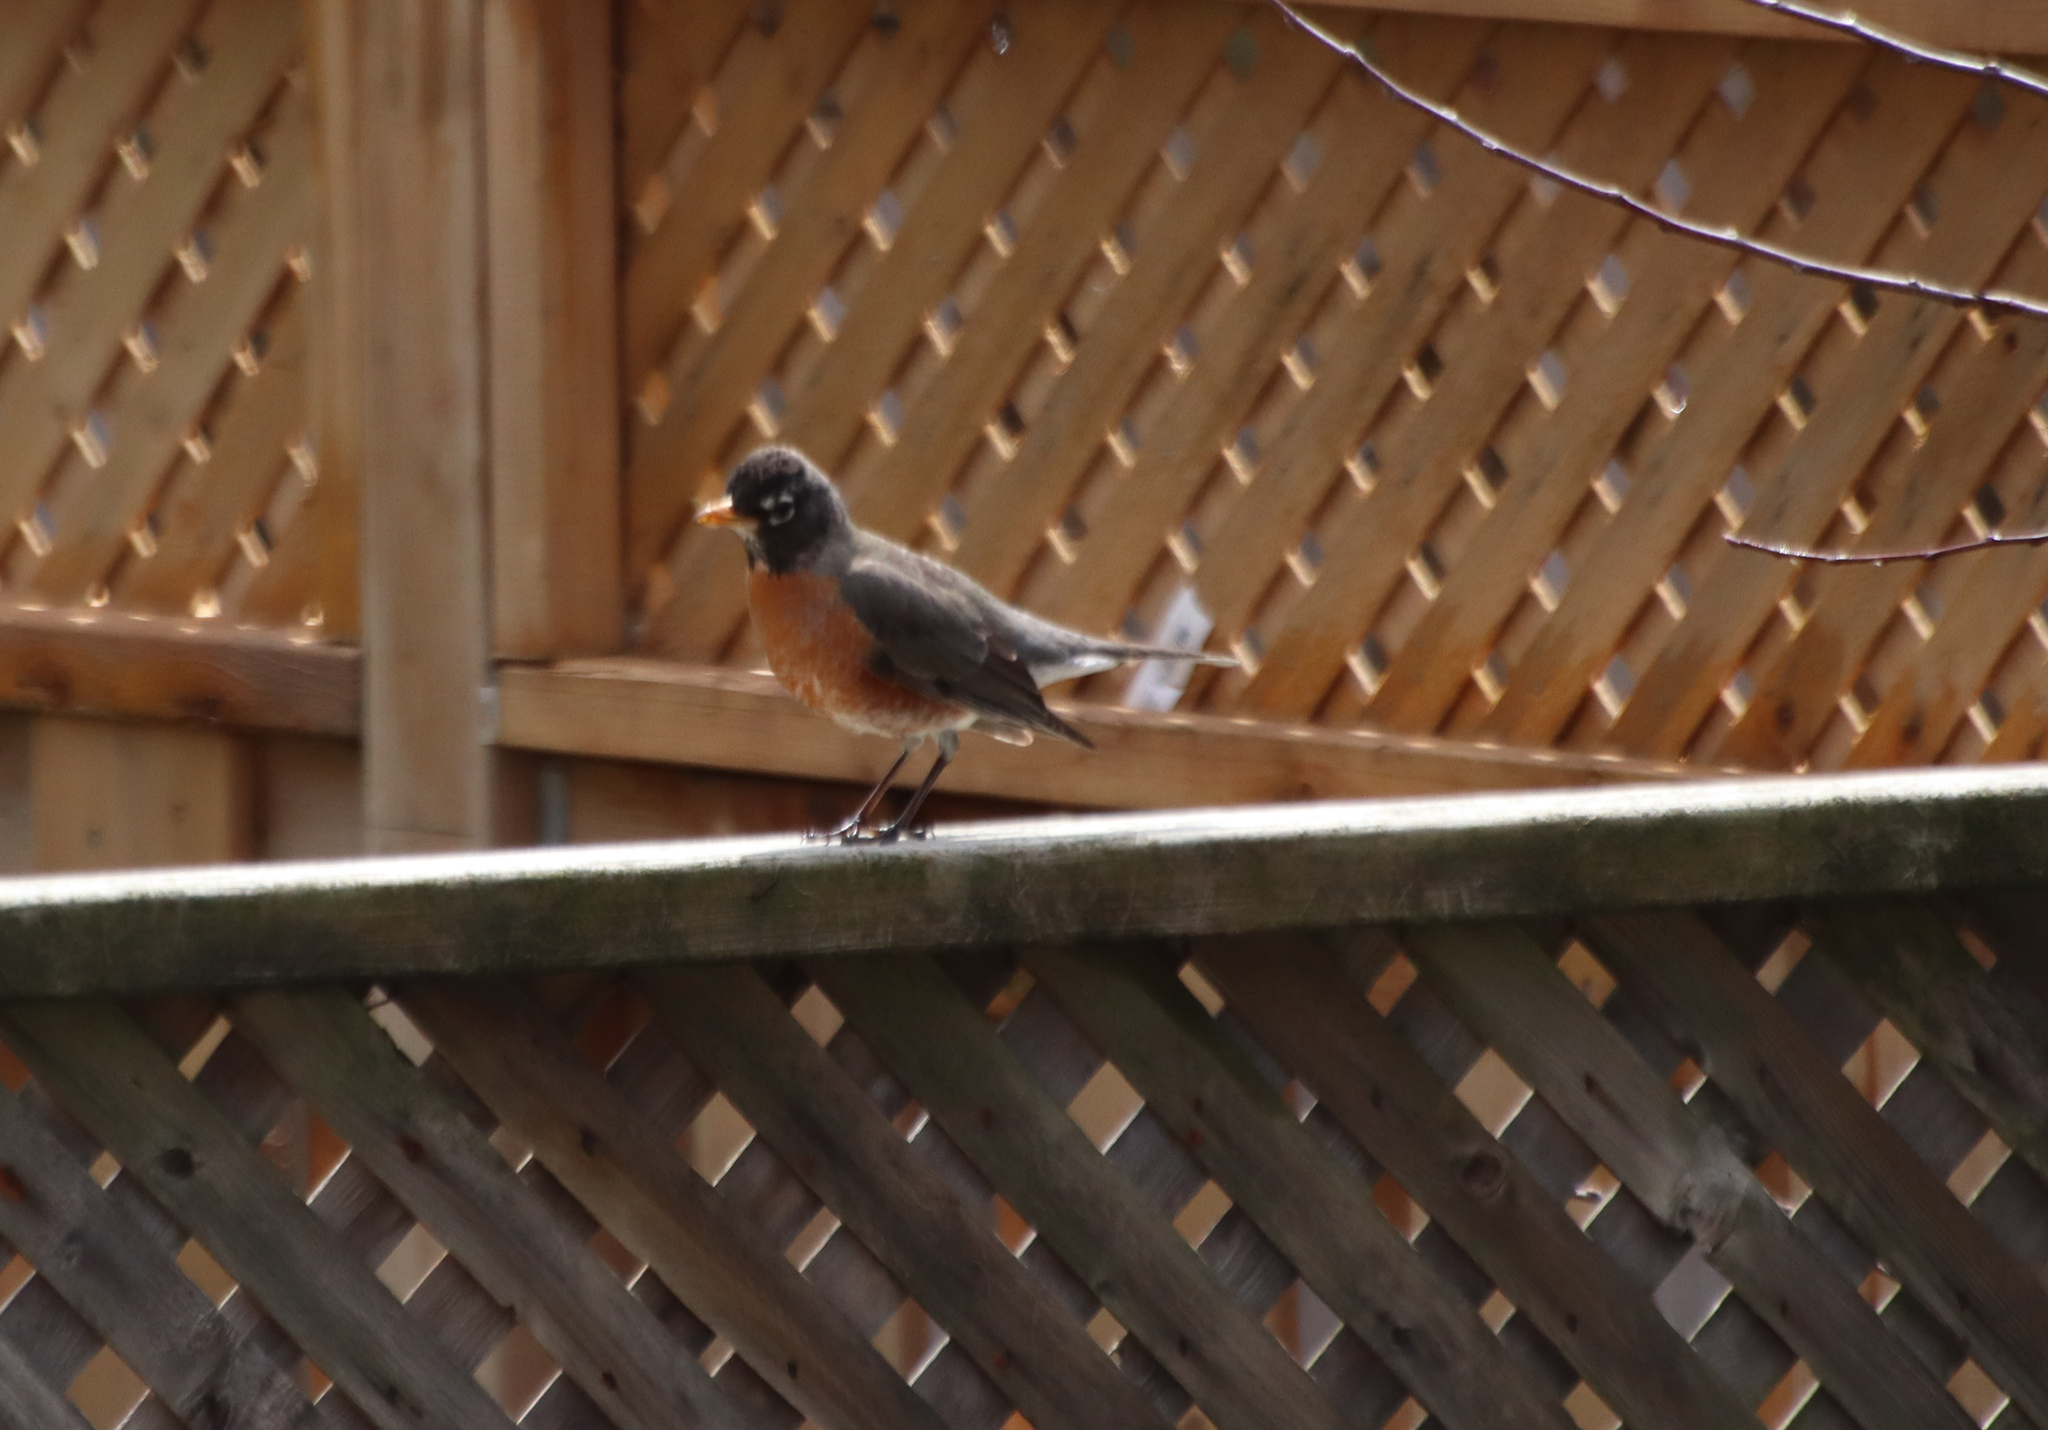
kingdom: Animalia
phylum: Chordata
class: Aves
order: Passeriformes
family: Turdidae
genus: Turdus
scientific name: Turdus migratorius
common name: American robin
